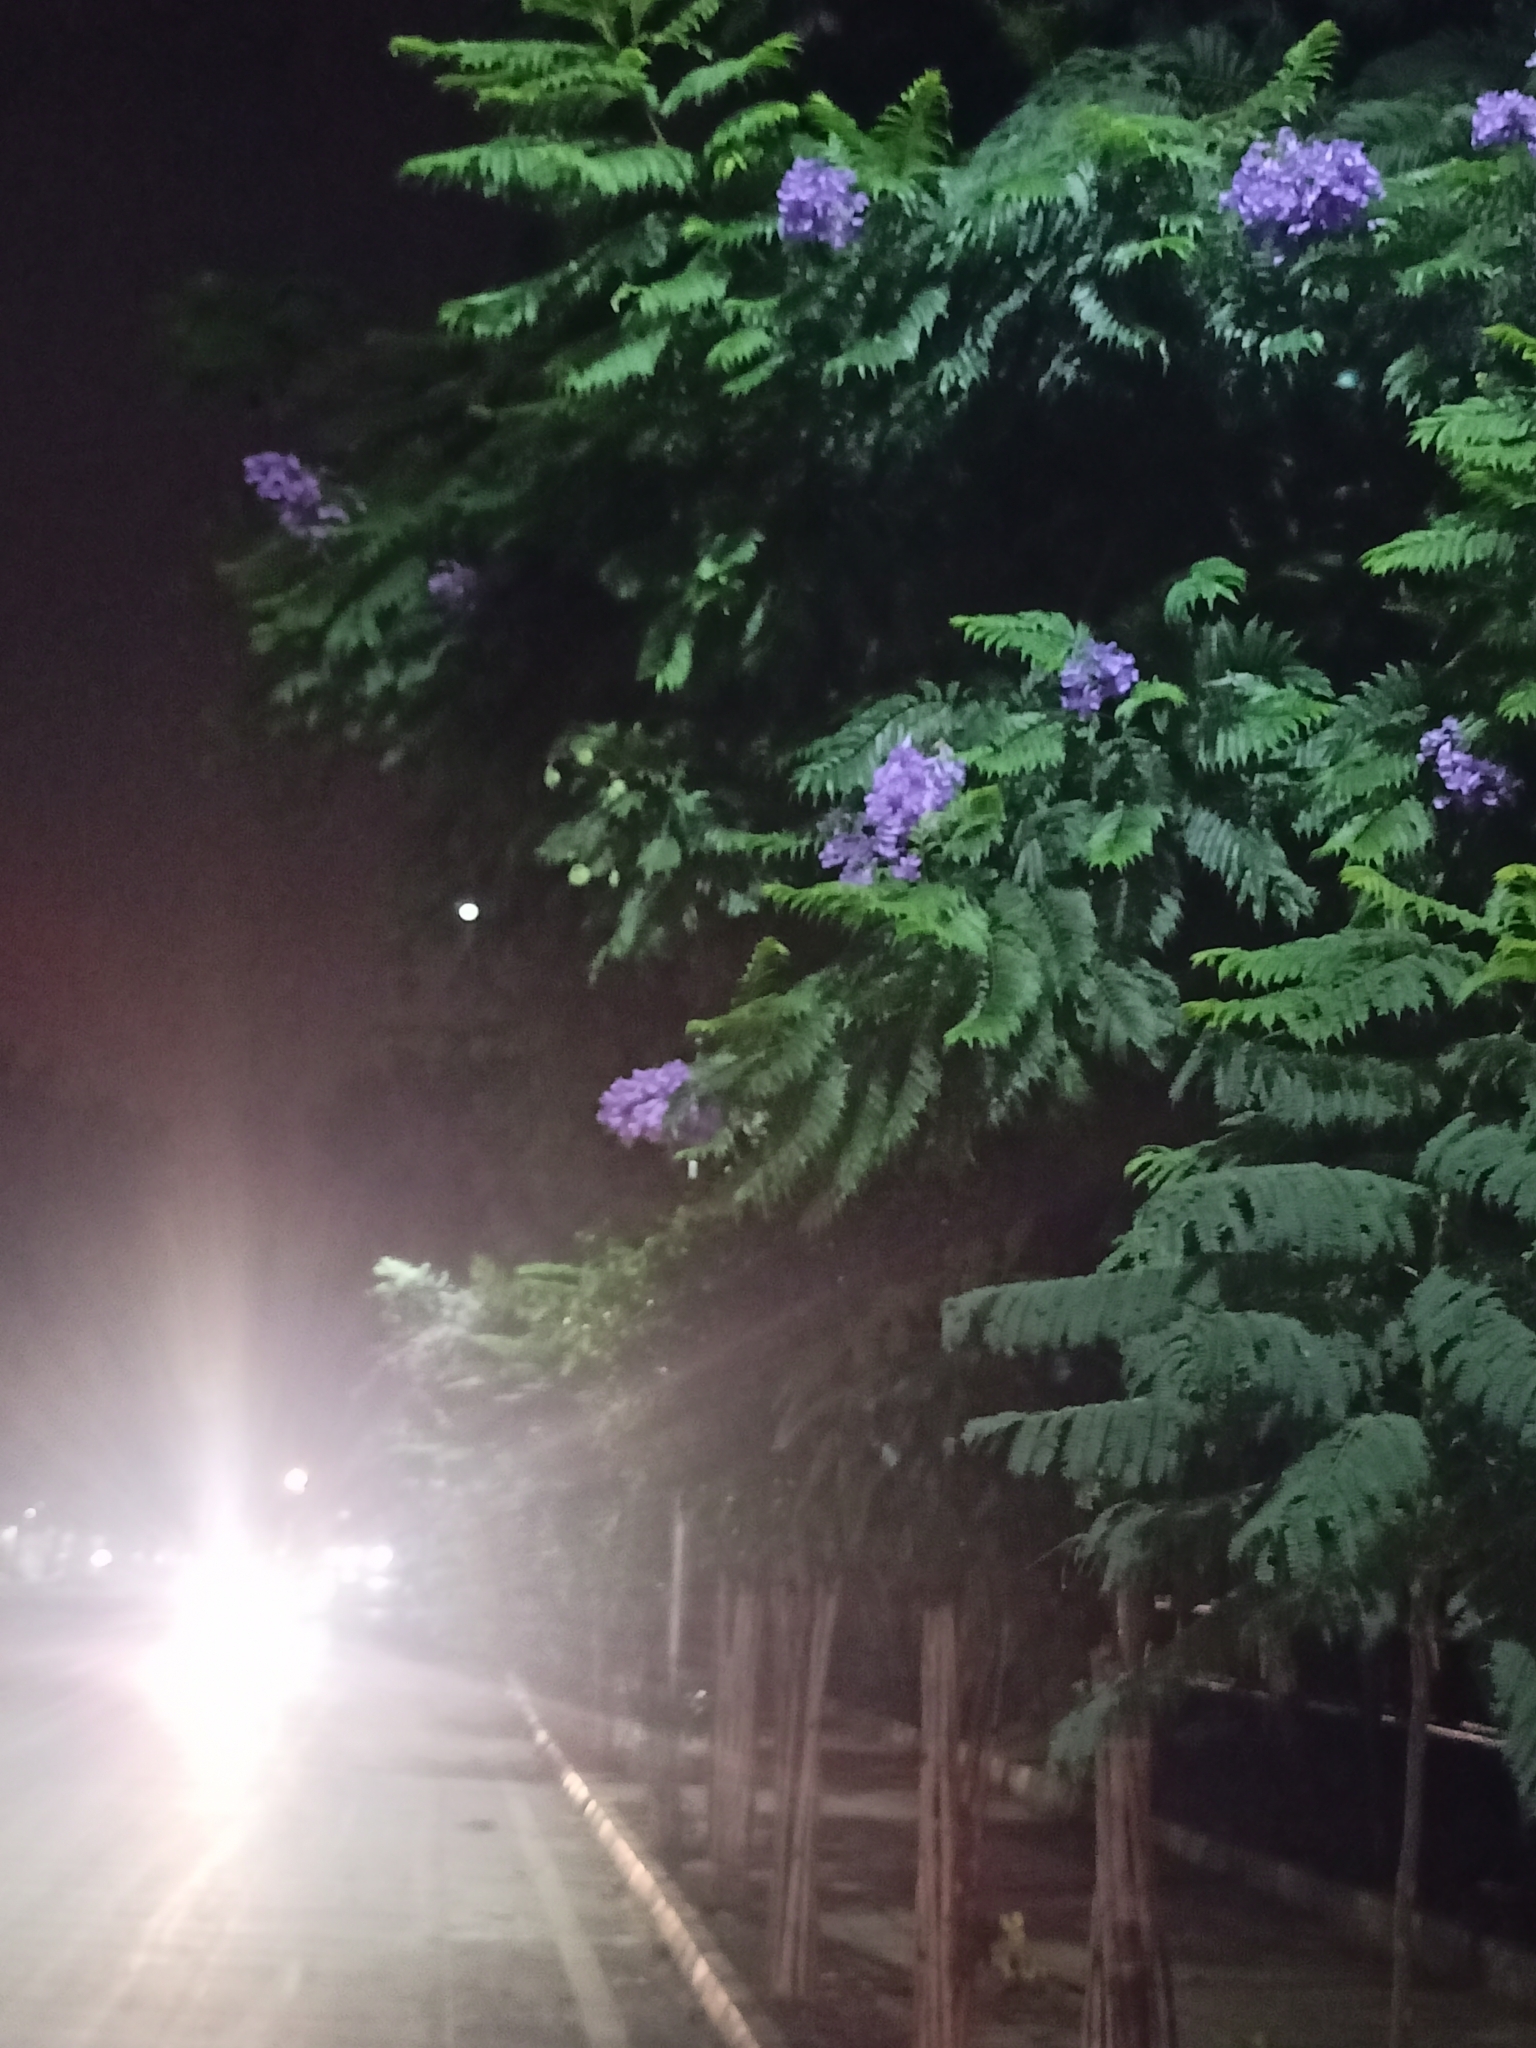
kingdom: Plantae
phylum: Tracheophyta
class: Magnoliopsida
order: Lamiales
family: Bignoniaceae
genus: Jacaranda
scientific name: Jacaranda mimosifolia
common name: Black poui
